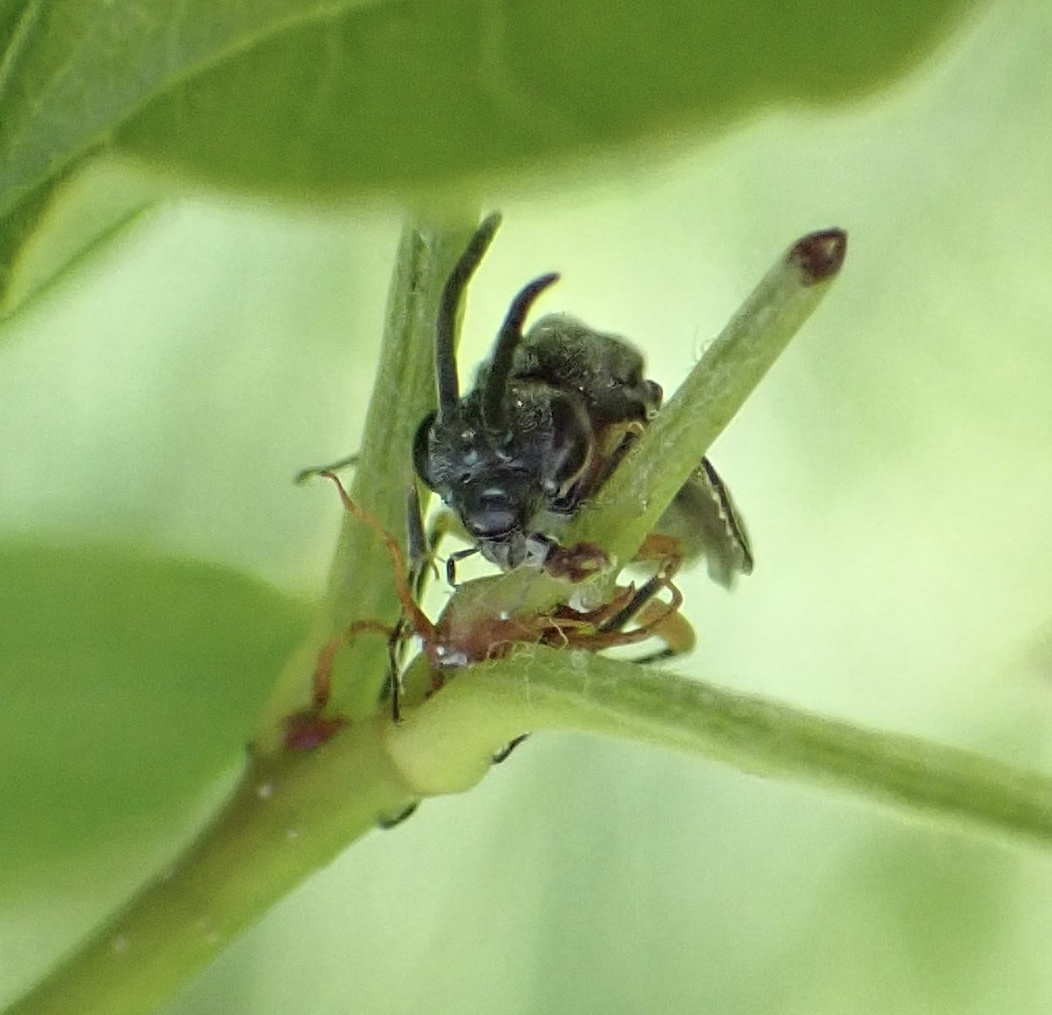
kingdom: Animalia
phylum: Arthropoda
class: Insecta
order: Hymenoptera
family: Tenthredinidae
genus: Dolerus
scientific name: Dolerus vestigialis
